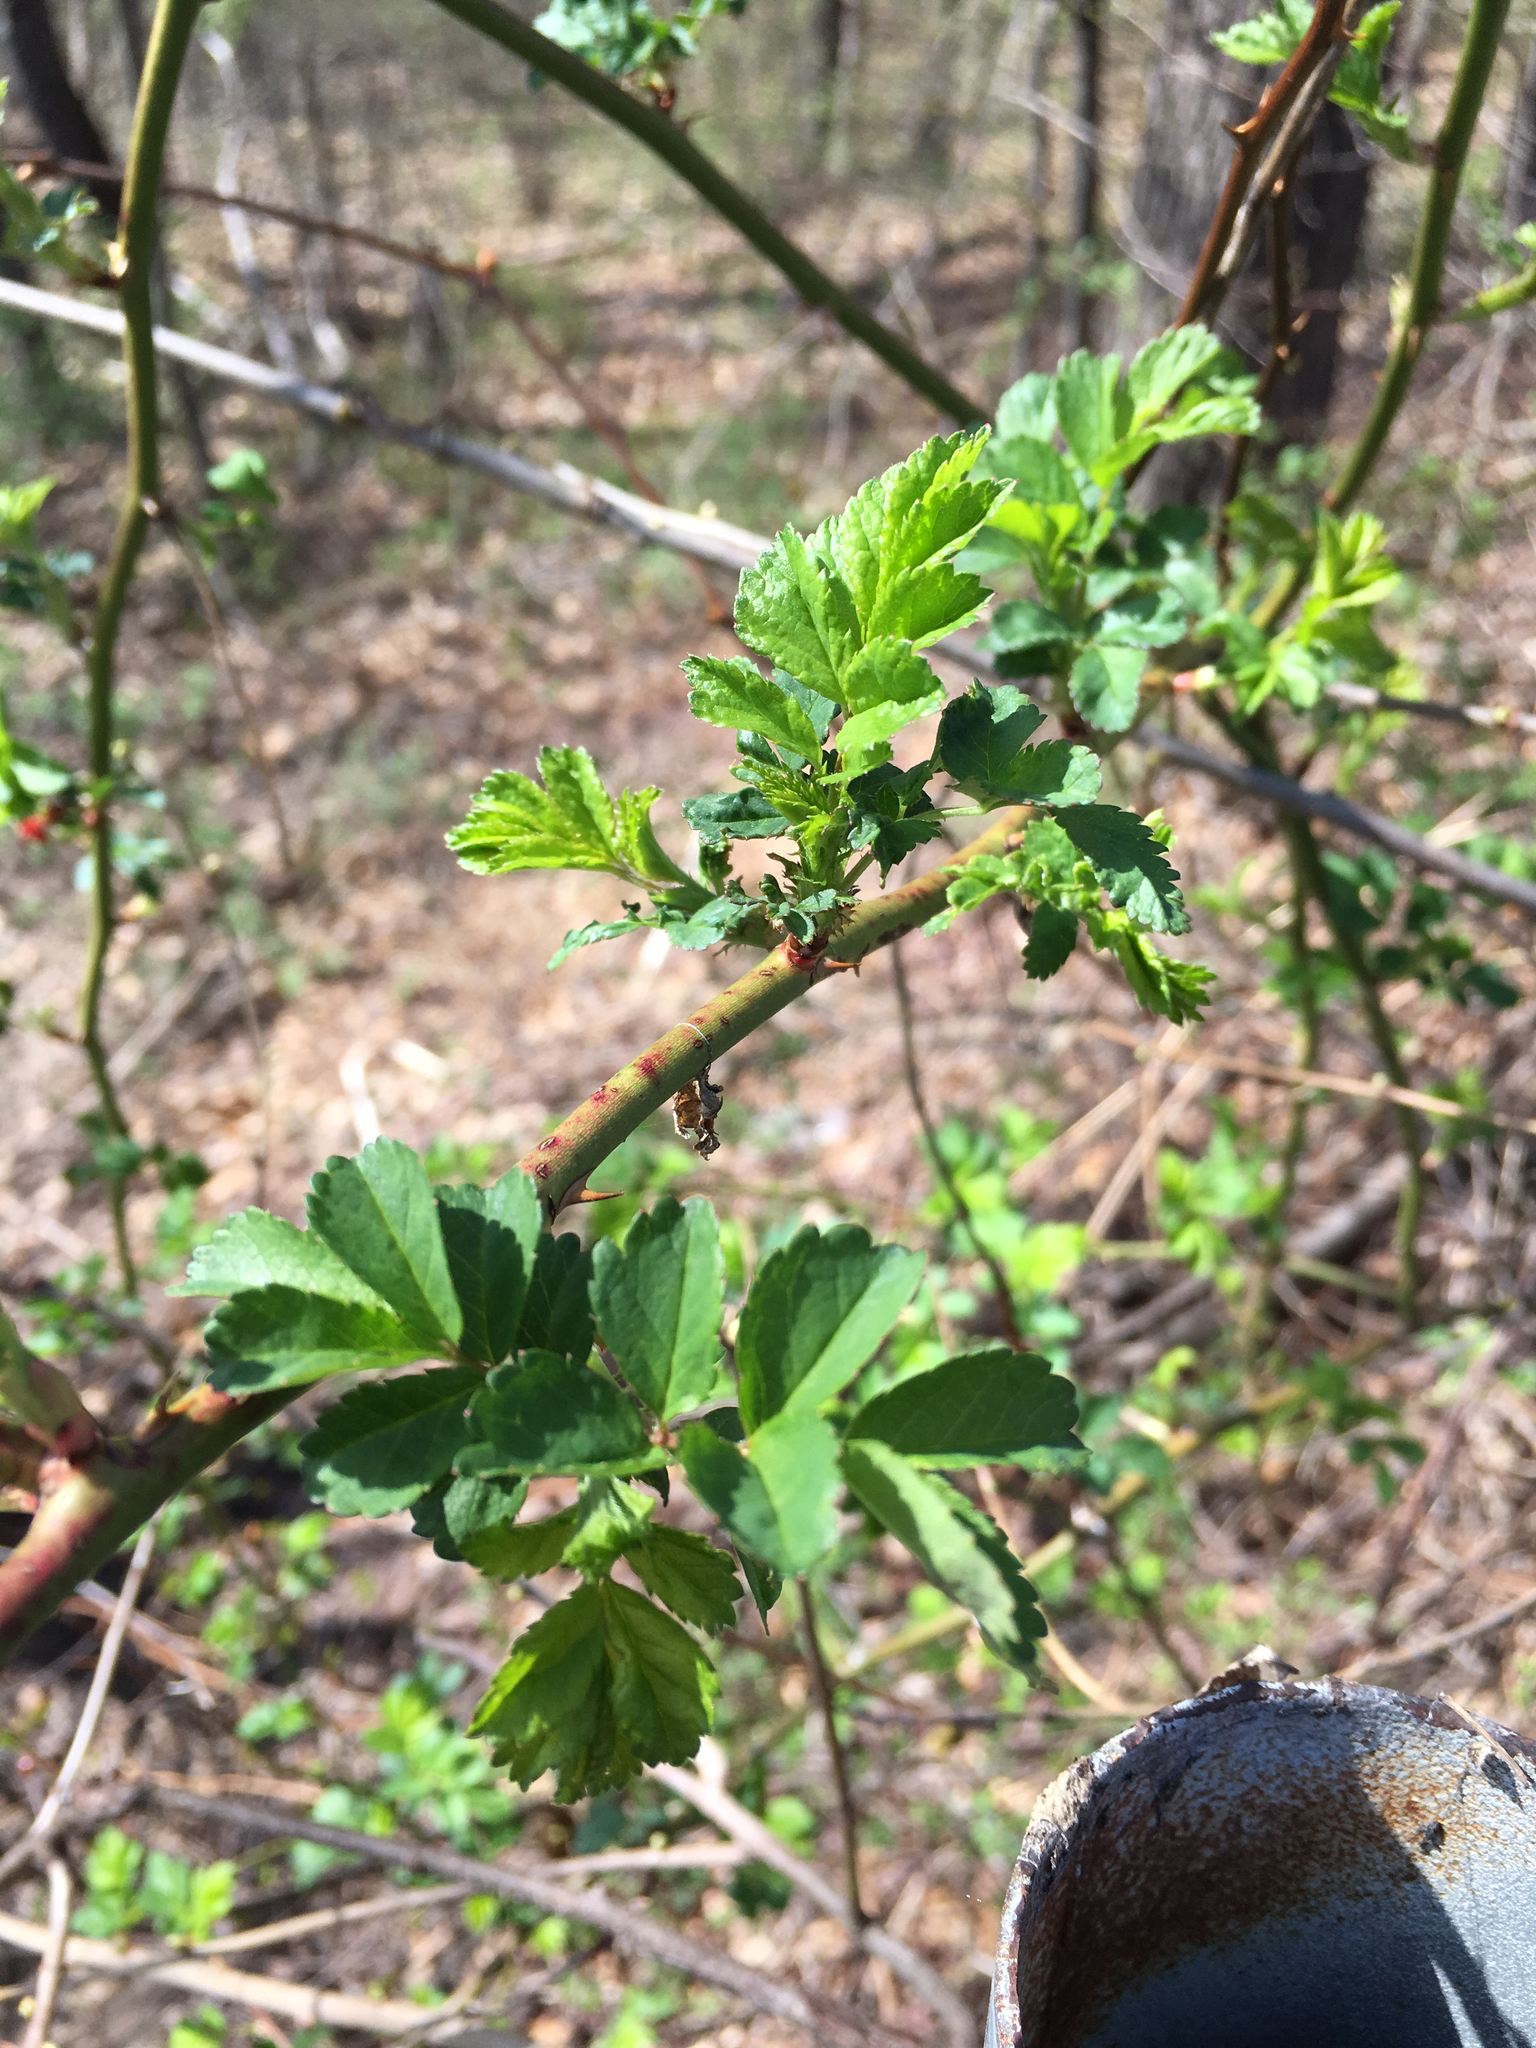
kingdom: Plantae
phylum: Tracheophyta
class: Magnoliopsida
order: Rosales
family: Rosaceae
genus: Rosa
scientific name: Rosa multiflora
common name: Multiflora rose
